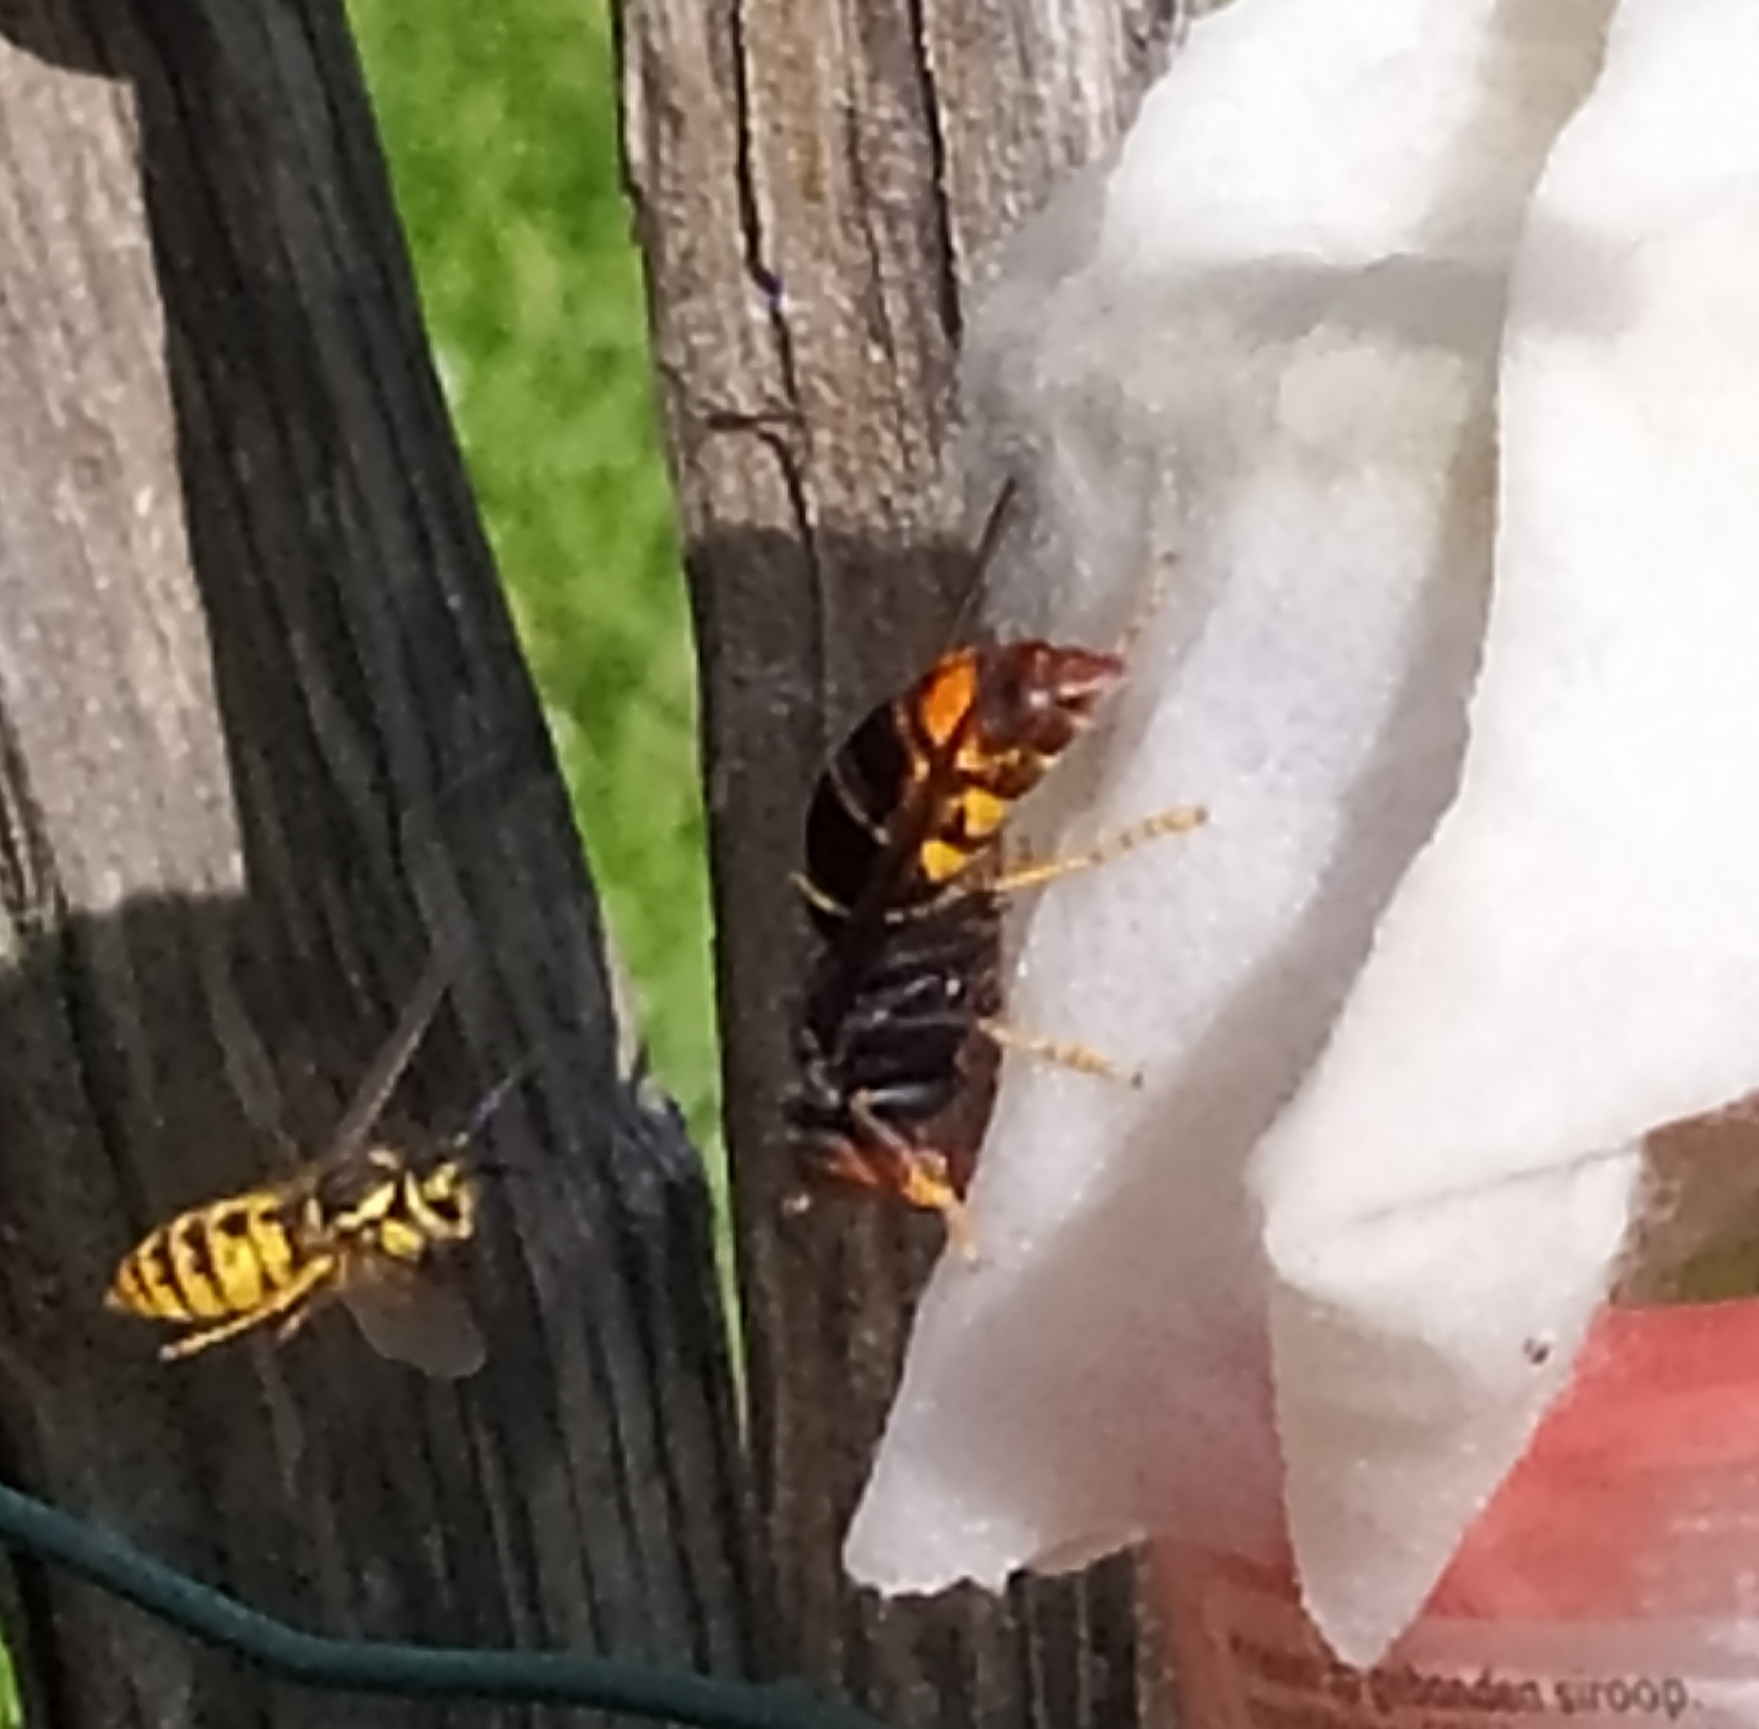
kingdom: Animalia
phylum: Arthropoda
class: Insecta
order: Hymenoptera
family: Vespidae
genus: Vespa
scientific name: Vespa velutina
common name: Asian hornet
